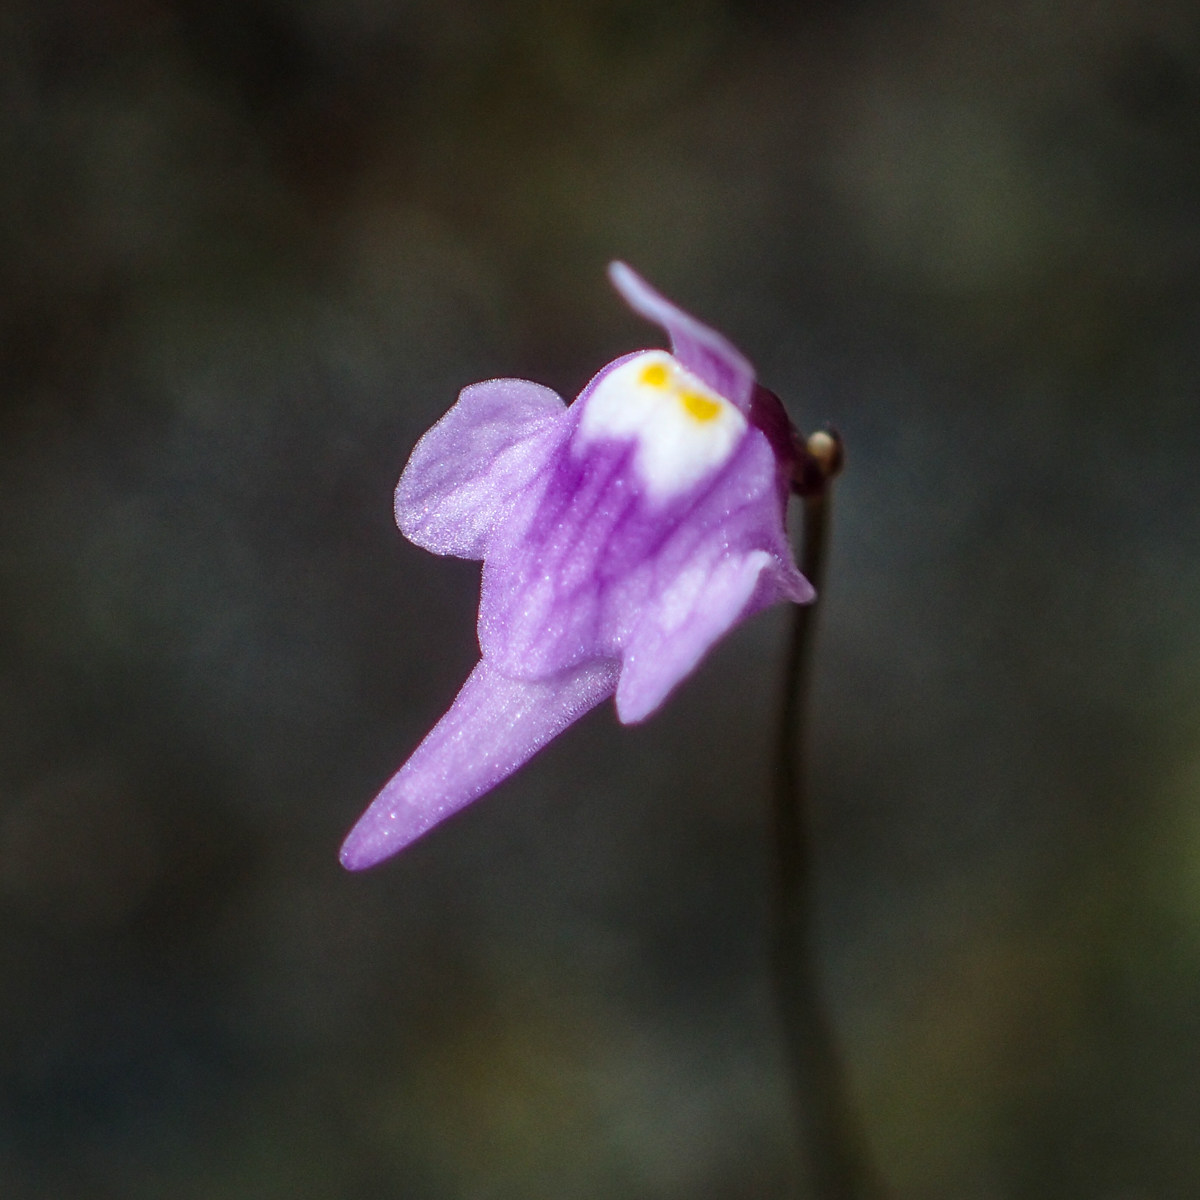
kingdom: Plantae
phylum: Tracheophyta
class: Magnoliopsida
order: Lamiales
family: Lentibulariaceae
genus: Utricularia
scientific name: Utricularia geoffrayi
